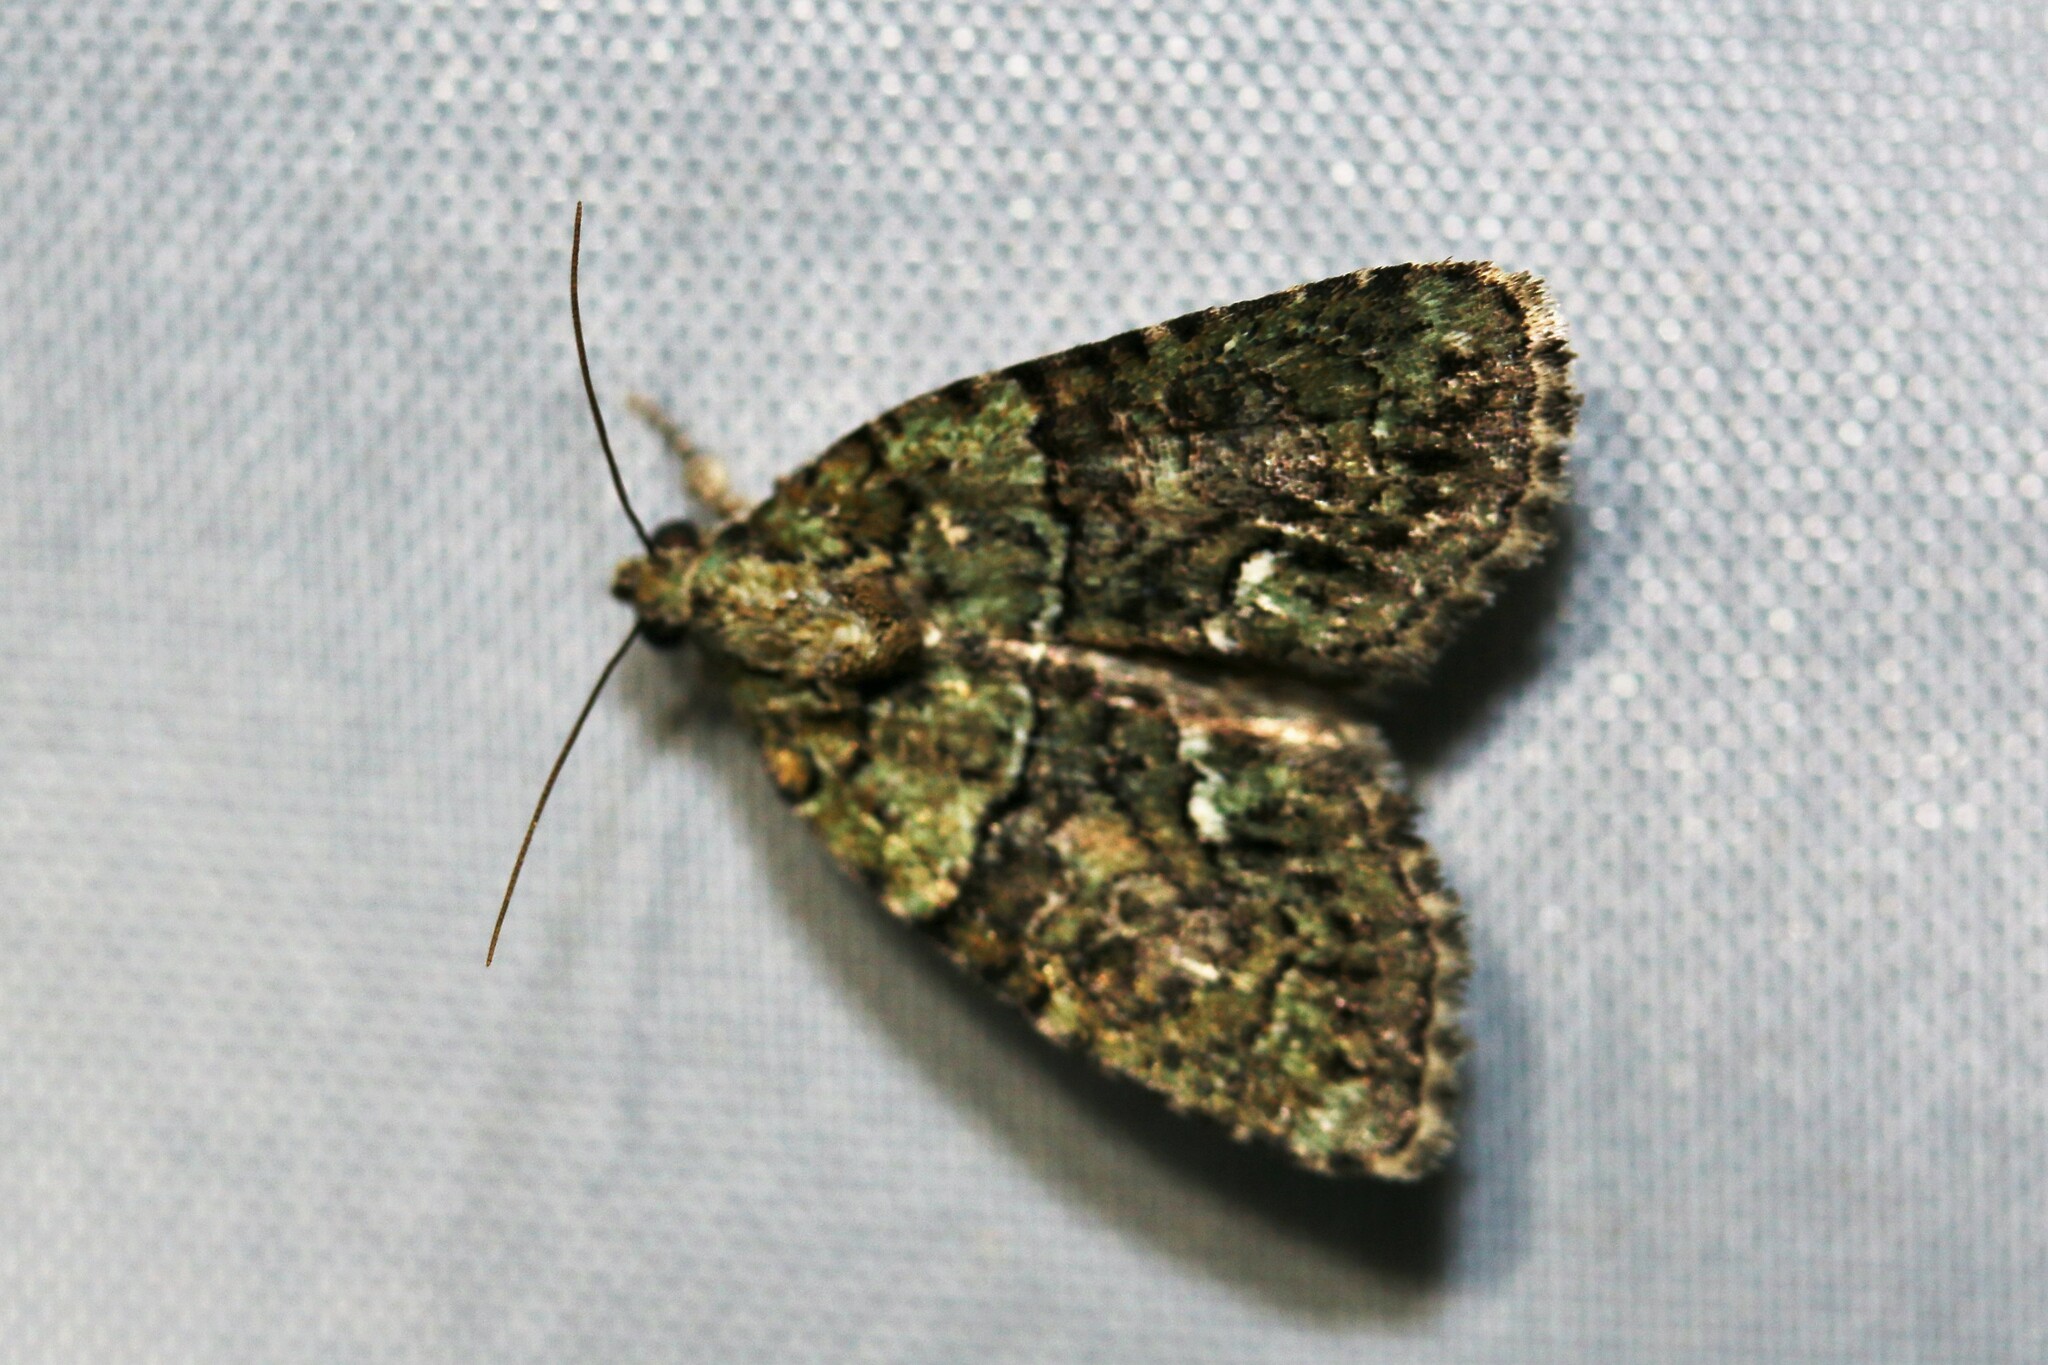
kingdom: Animalia
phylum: Arthropoda
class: Insecta
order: Lepidoptera
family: Noctuidae
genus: Cryphia
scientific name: Cryphia algae
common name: Tree-lichen beauty
